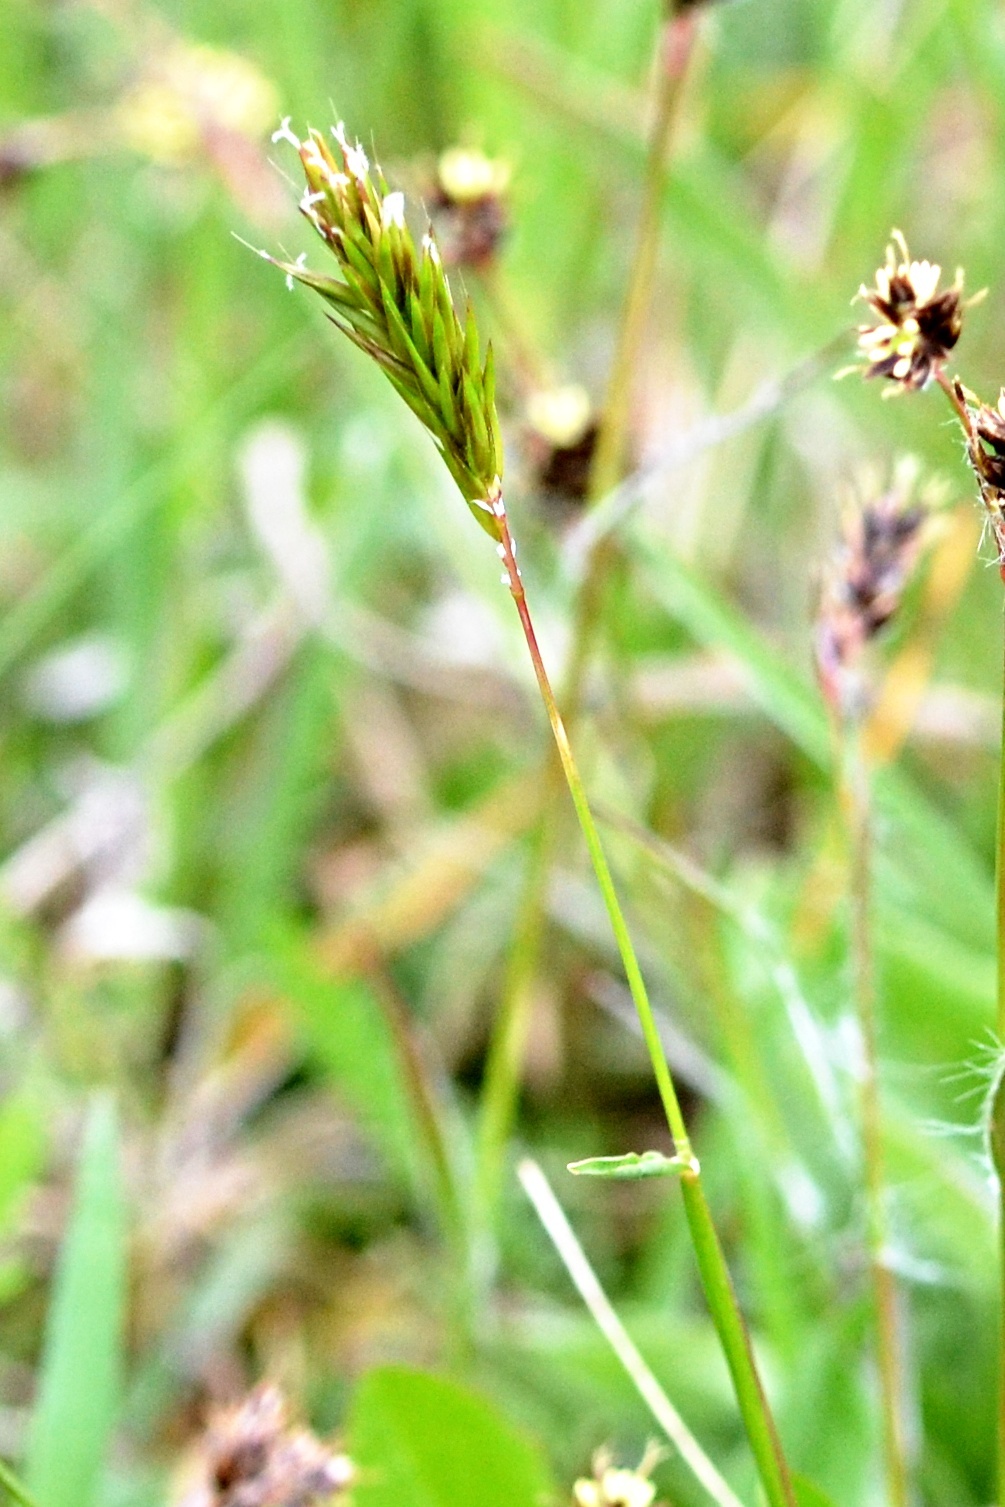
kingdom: Plantae
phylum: Tracheophyta
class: Liliopsida
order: Poales
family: Poaceae
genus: Anthoxanthum
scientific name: Anthoxanthum odoratum
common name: Sweet vernalgrass
